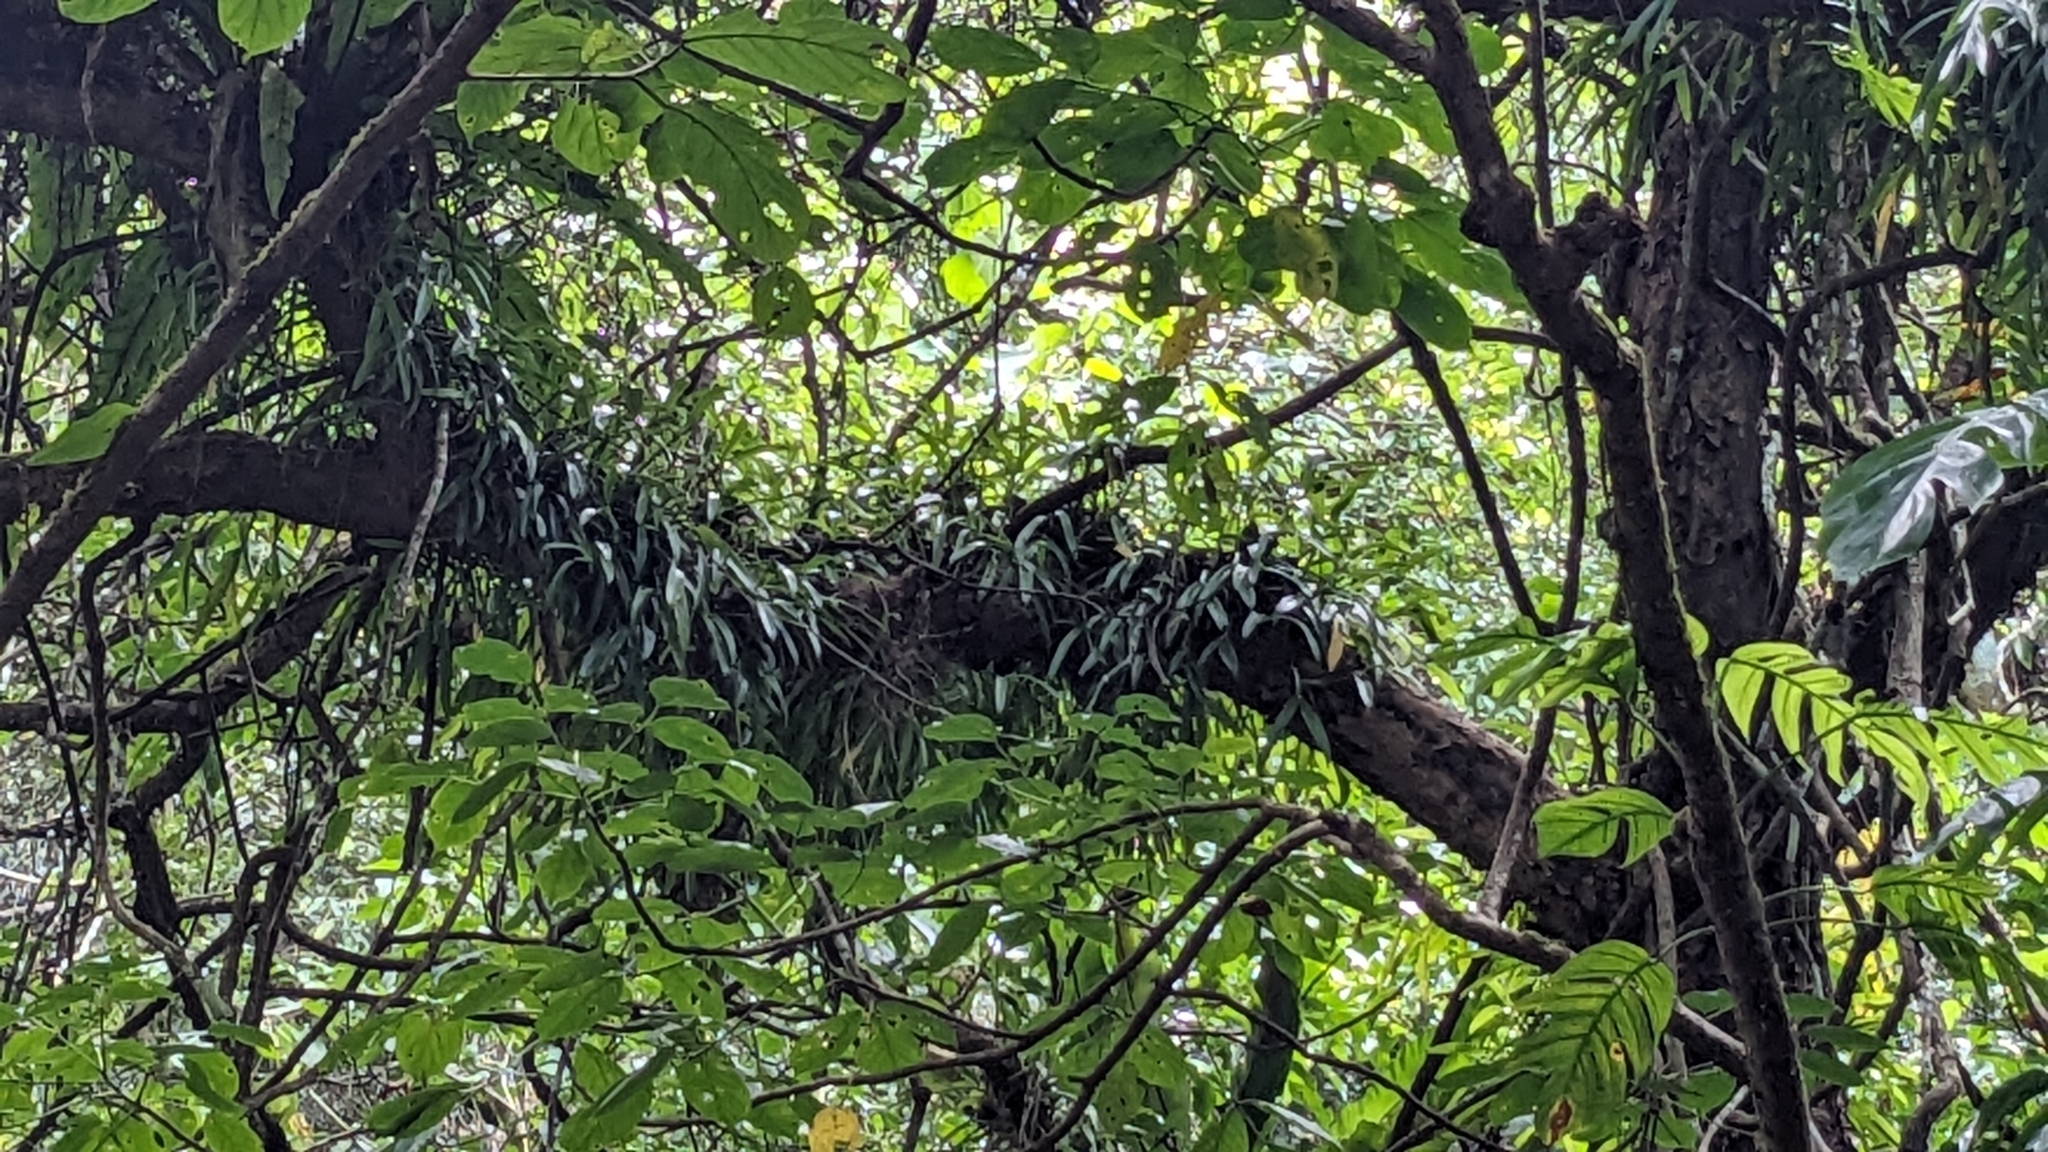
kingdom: Plantae
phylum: Tracheophyta
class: Liliopsida
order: Asparagales
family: Orchidaceae
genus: Liparis
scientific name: Liparis condylobulbon
